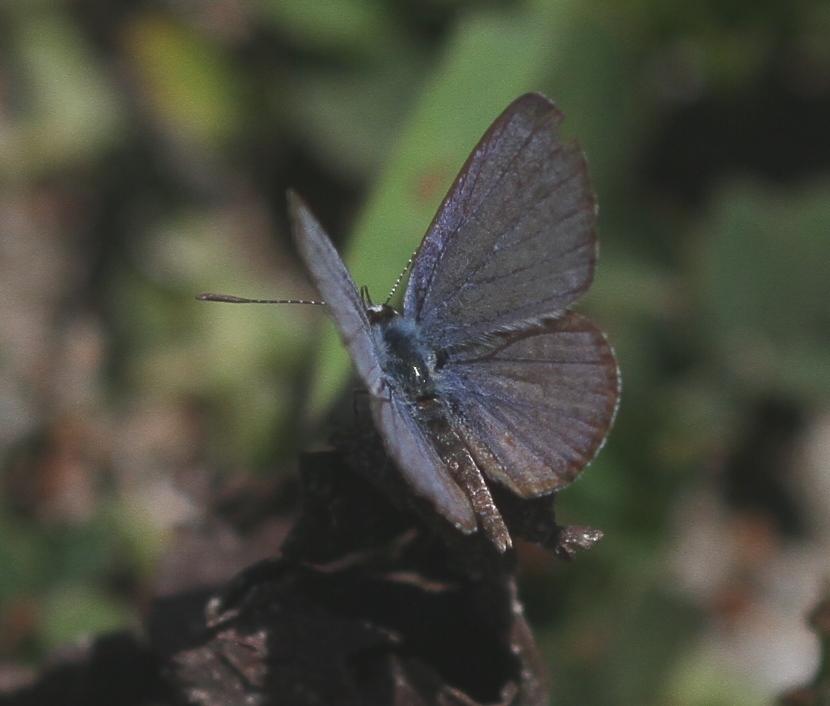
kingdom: Animalia
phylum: Arthropoda
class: Insecta
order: Lepidoptera
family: Lycaenidae
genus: Hemiargus
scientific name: Hemiargus hanno
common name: Common blue
